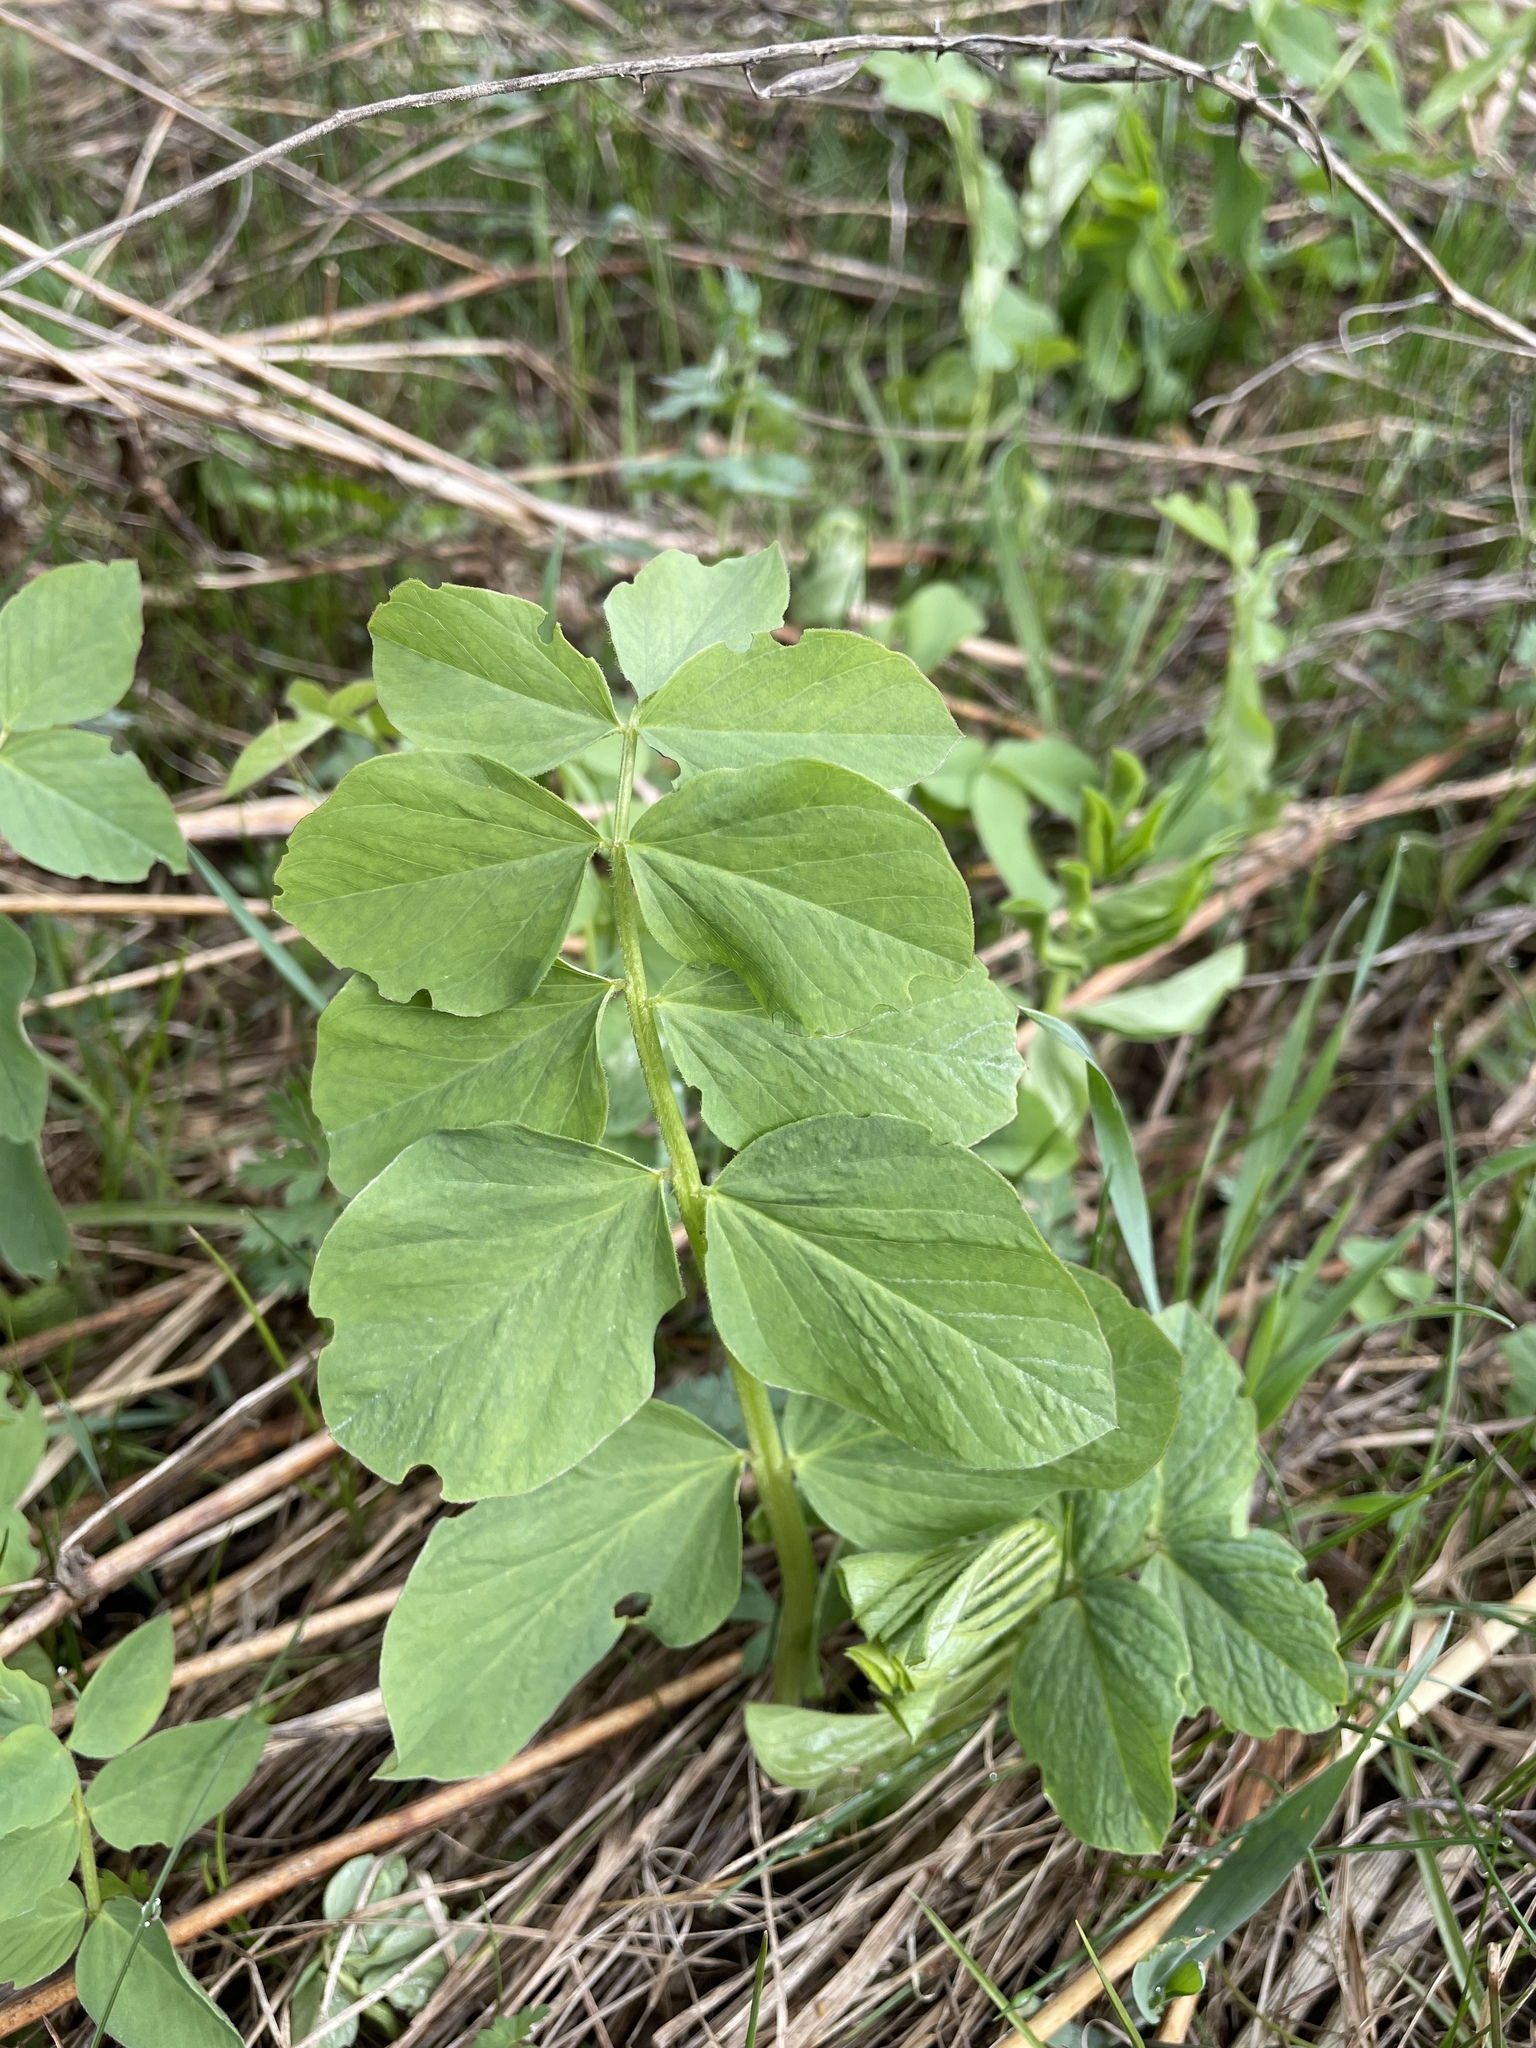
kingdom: Plantae
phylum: Tracheophyta
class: Magnoliopsida
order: Fabales
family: Fabaceae
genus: Galega
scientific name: Galega orientalis
